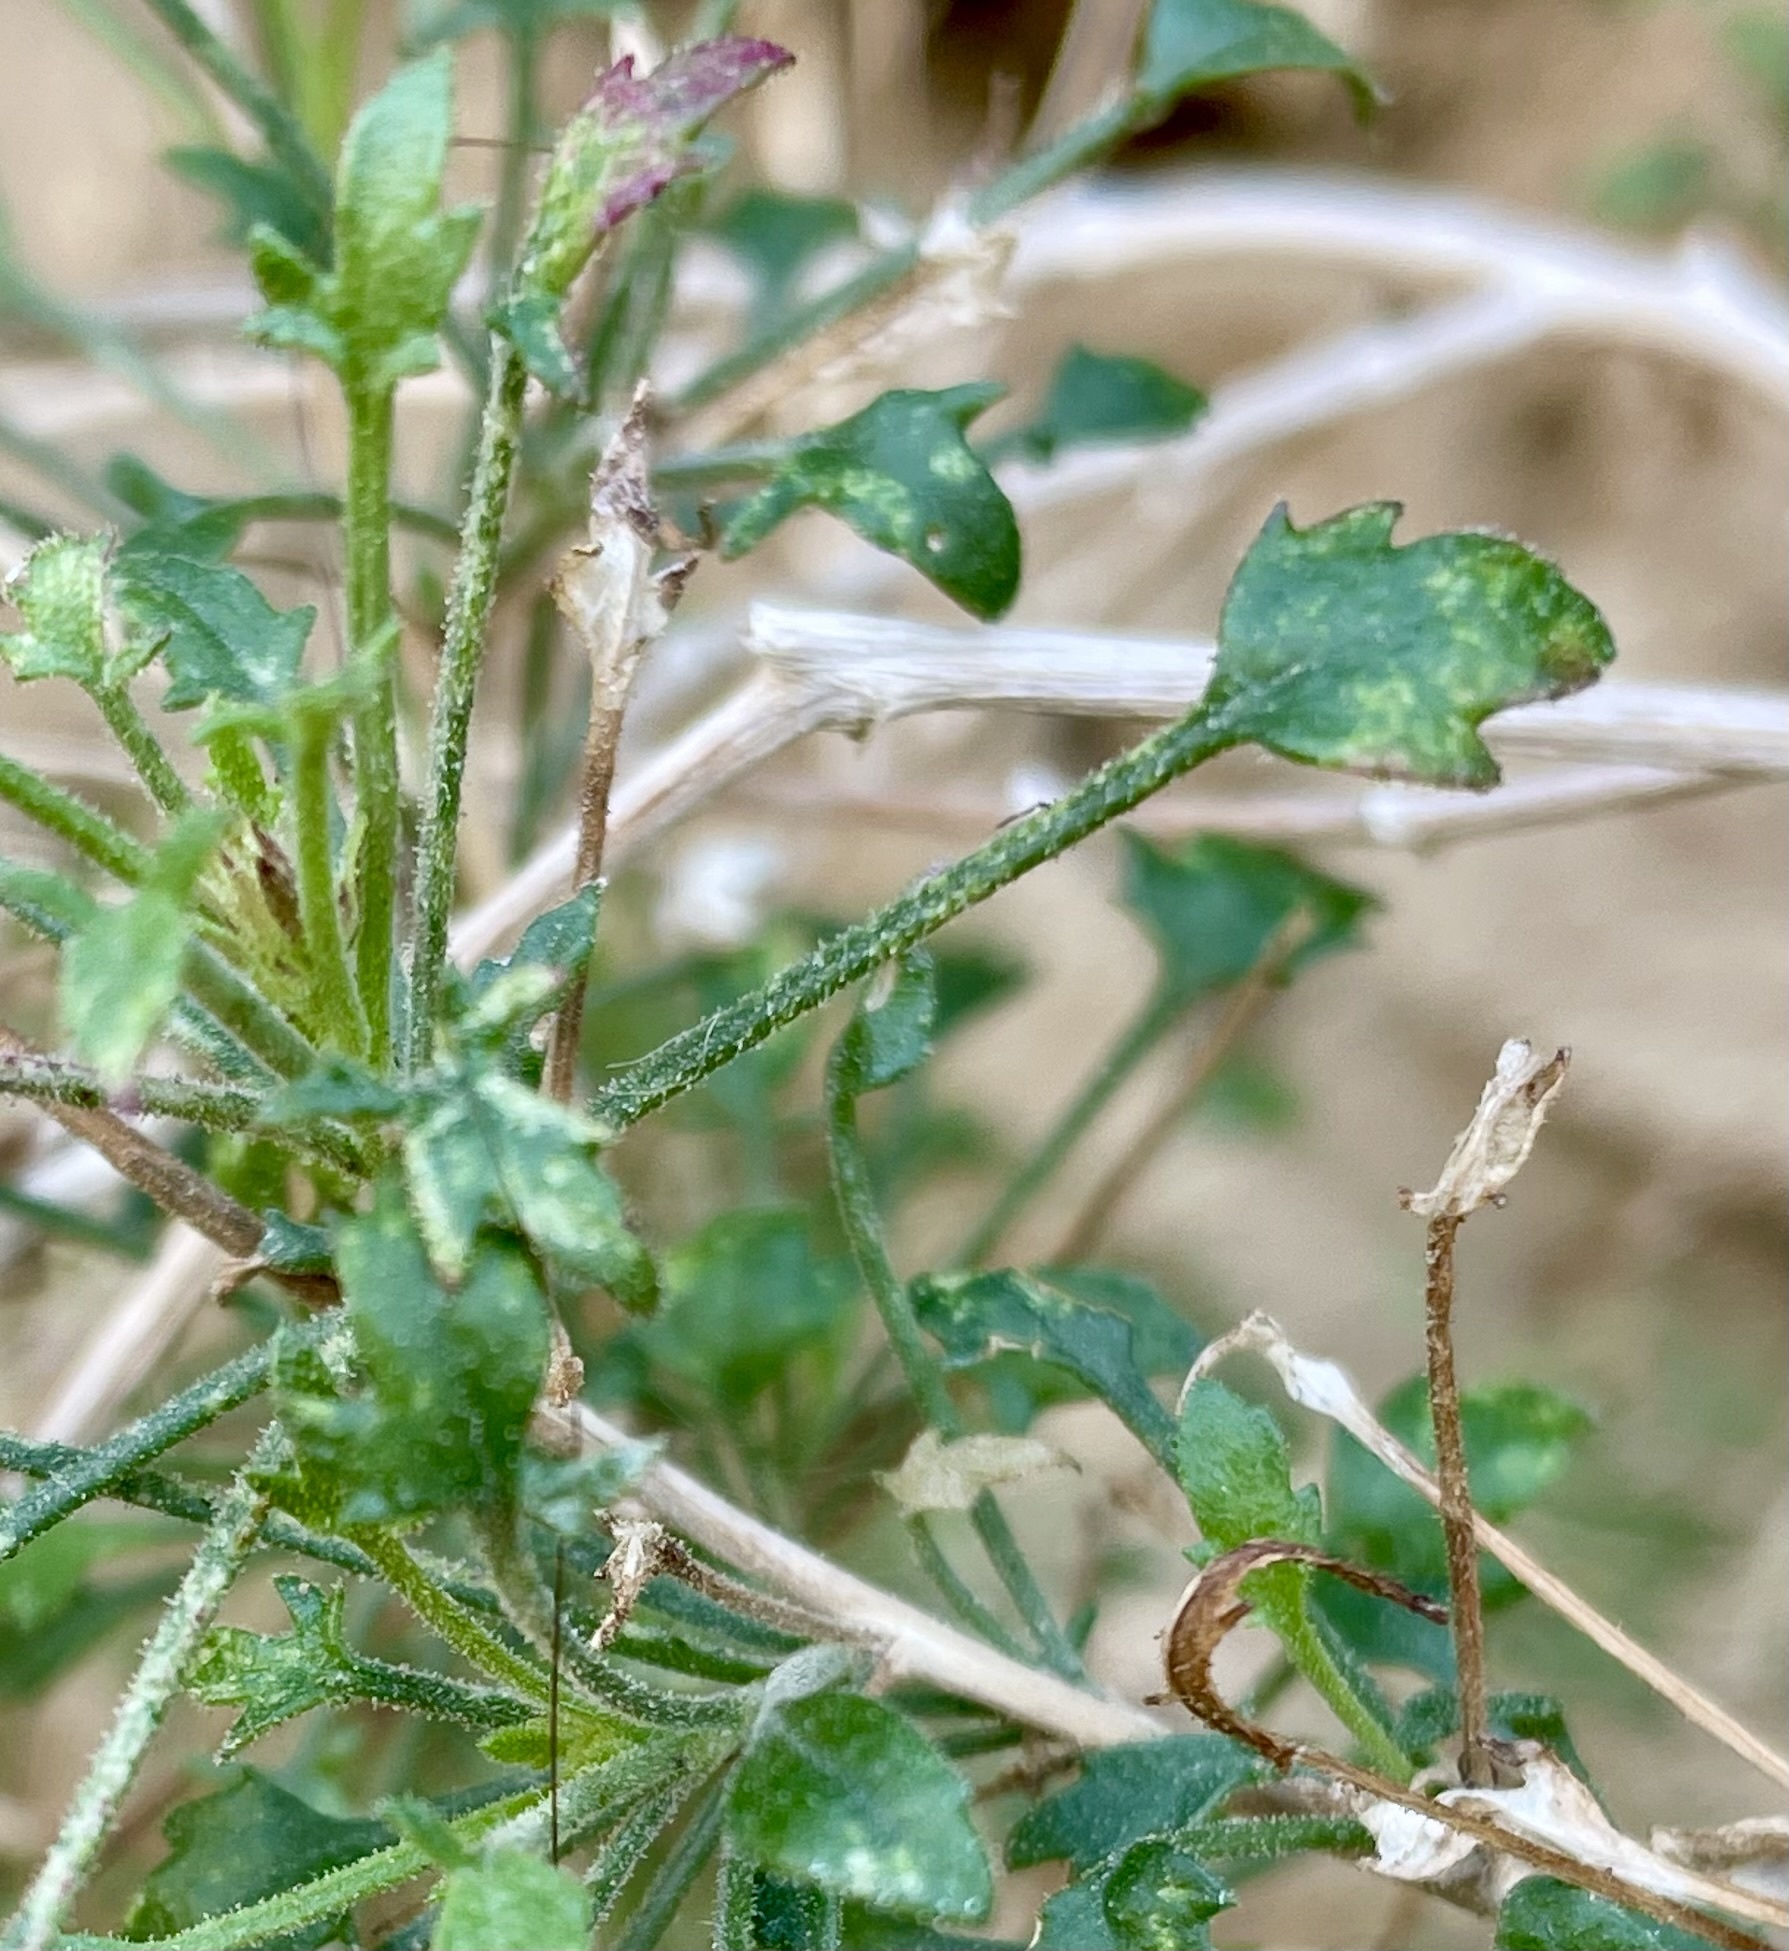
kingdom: Plantae
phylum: Tracheophyta
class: Magnoliopsida
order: Asterales
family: Asteraceae
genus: Pleurocoronis
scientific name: Pleurocoronis pluriseta
